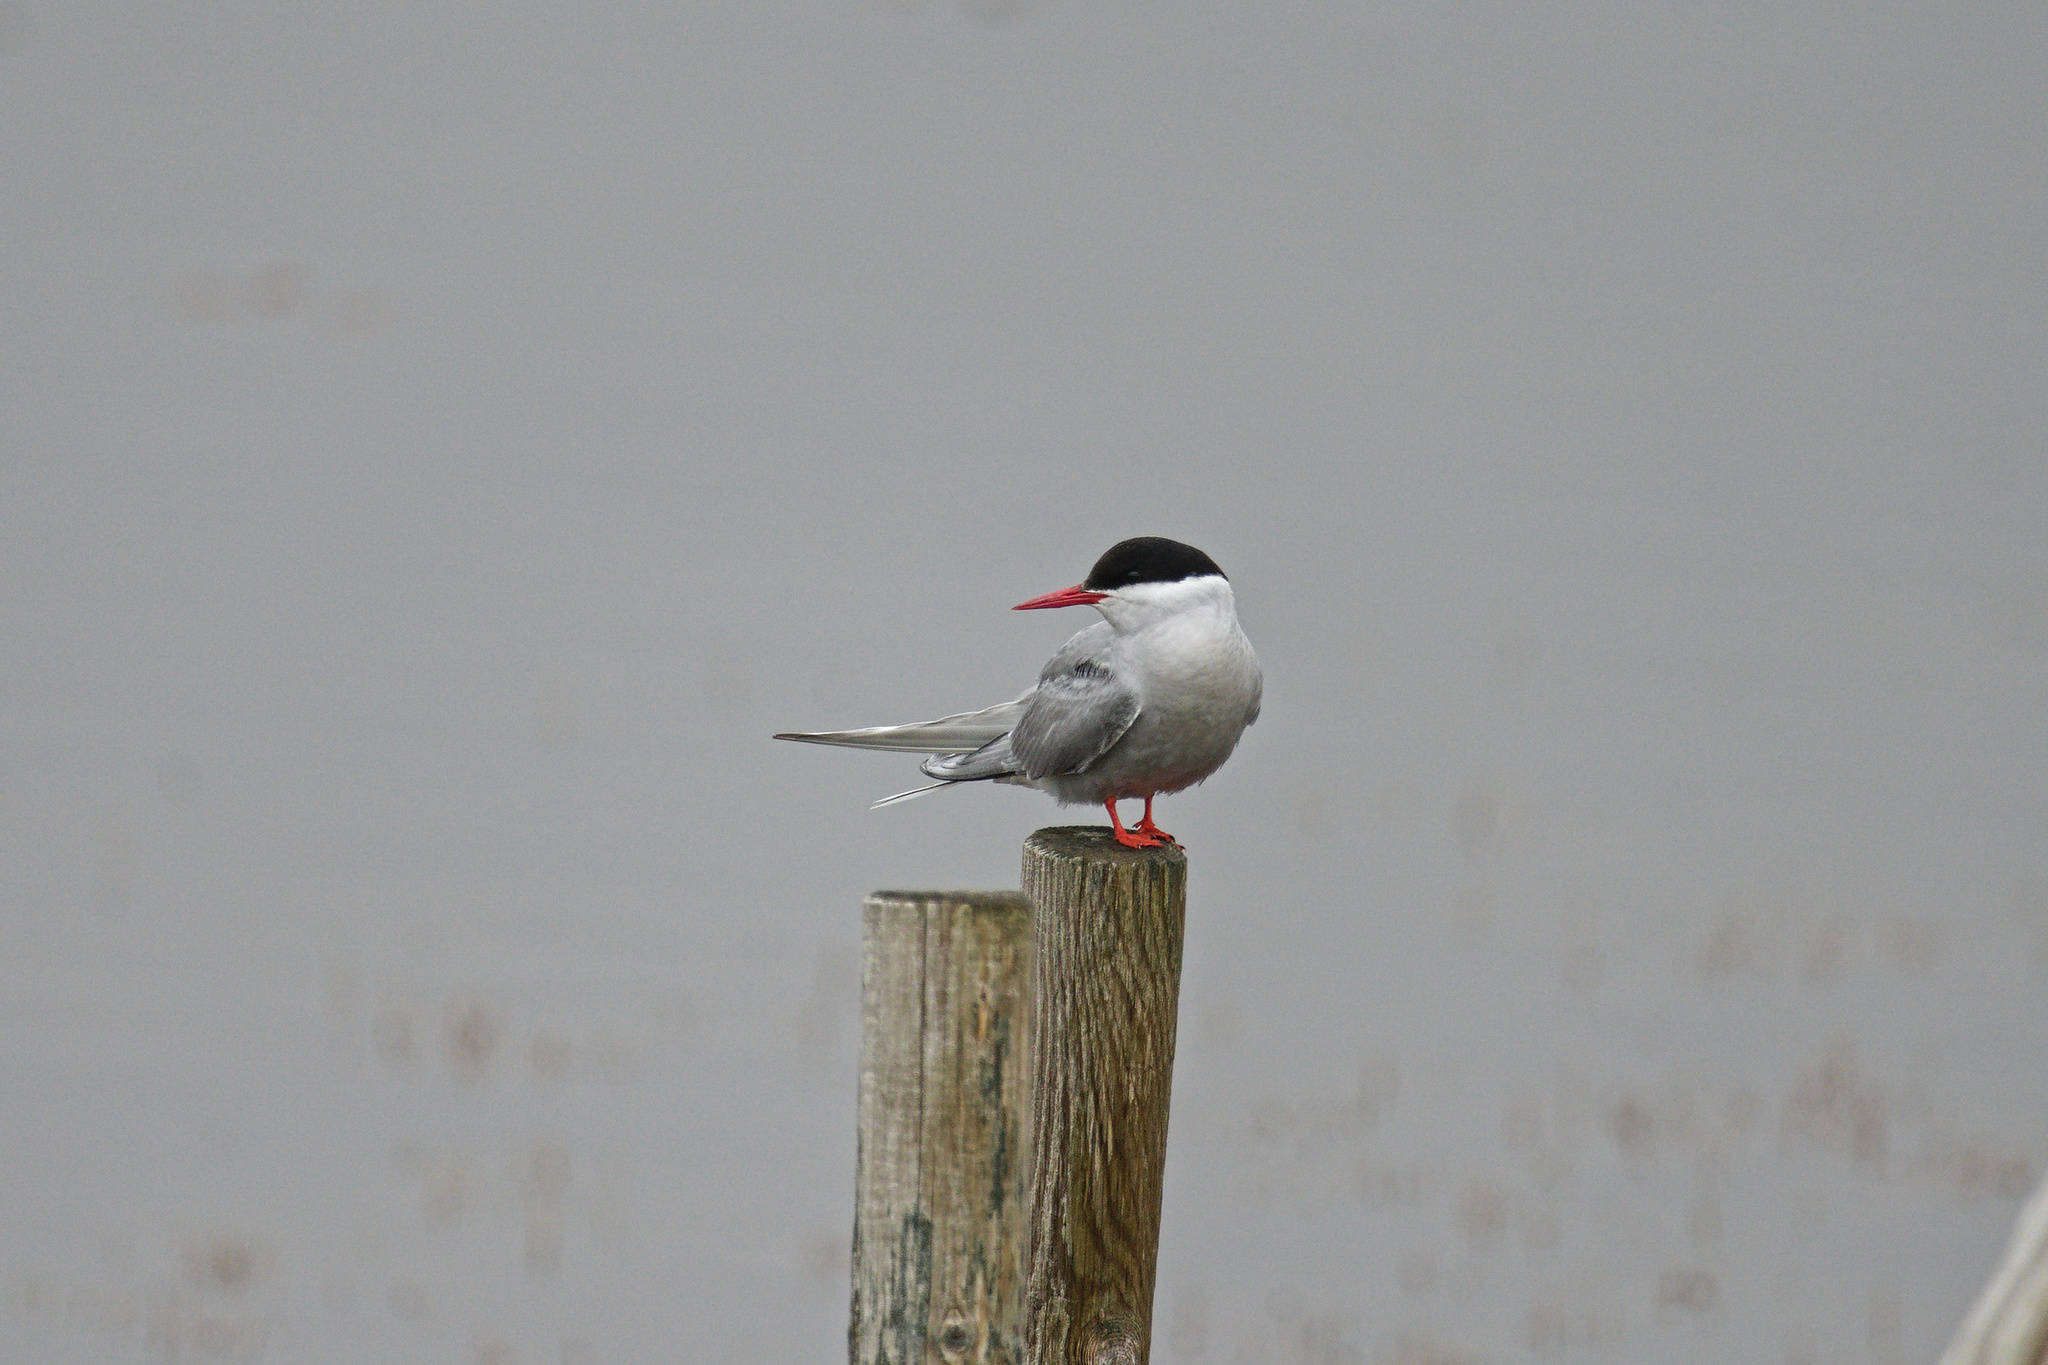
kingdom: Animalia
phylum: Chordata
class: Aves
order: Charadriiformes
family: Laridae
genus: Sterna
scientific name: Sterna paradisaea
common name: Arctic tern
